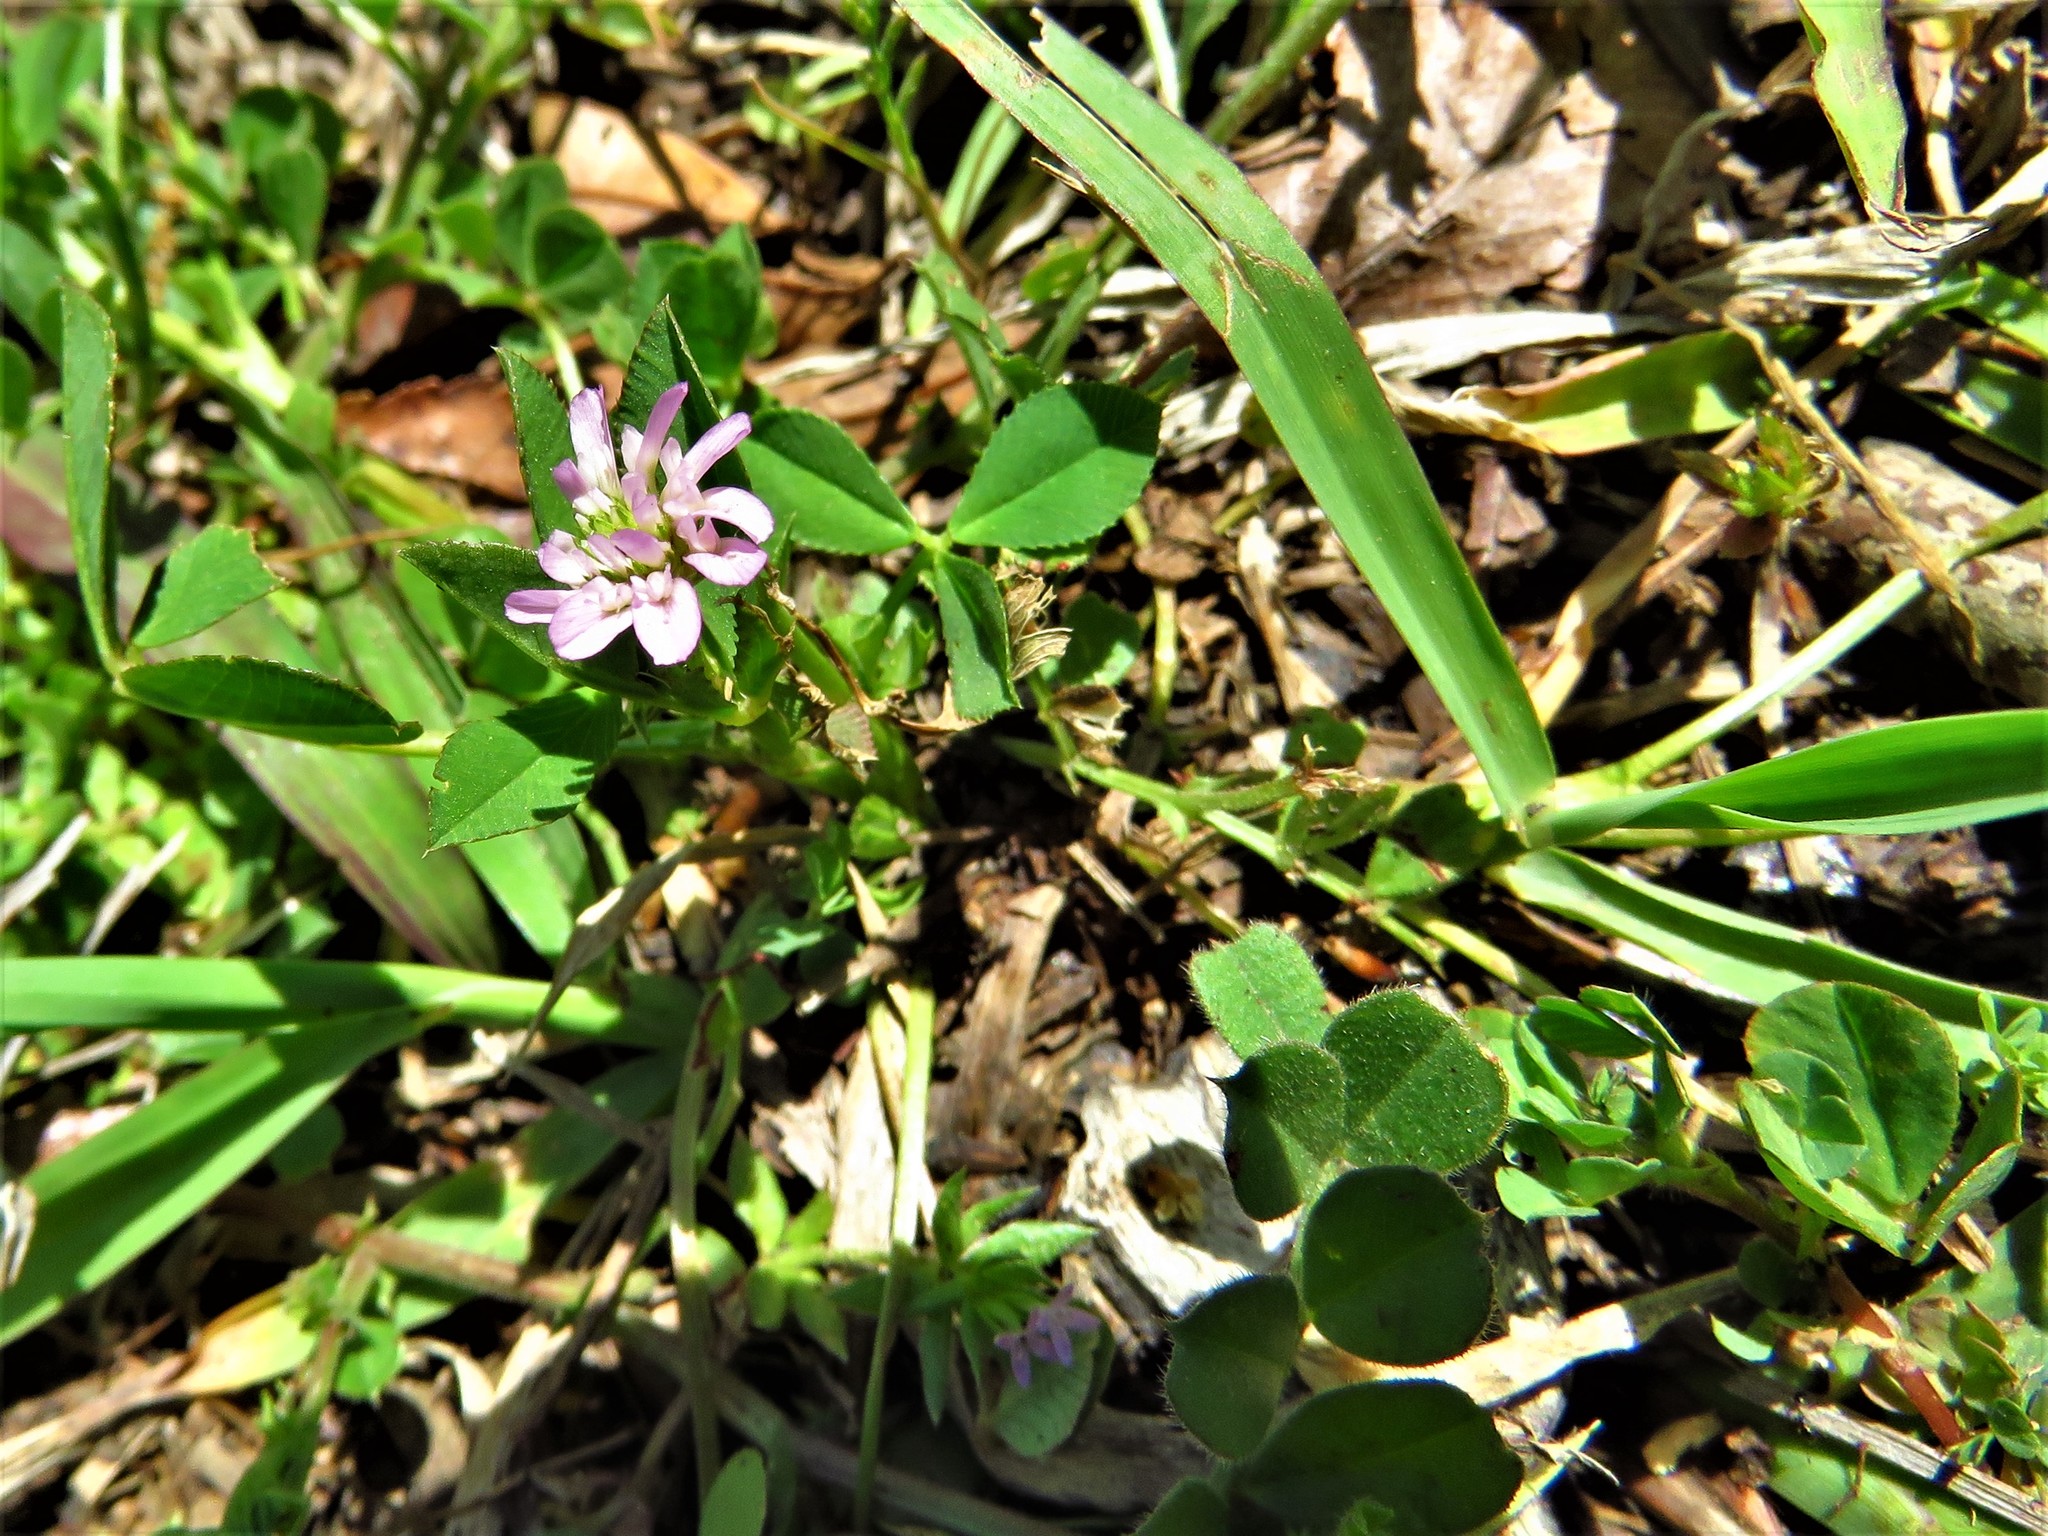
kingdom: Plantae
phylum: Tracheophyta
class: Magnoliopsida
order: Fabales
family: Fabaceae
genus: Trifolium
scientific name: Trifolium resupinatum
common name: Reversed clover
